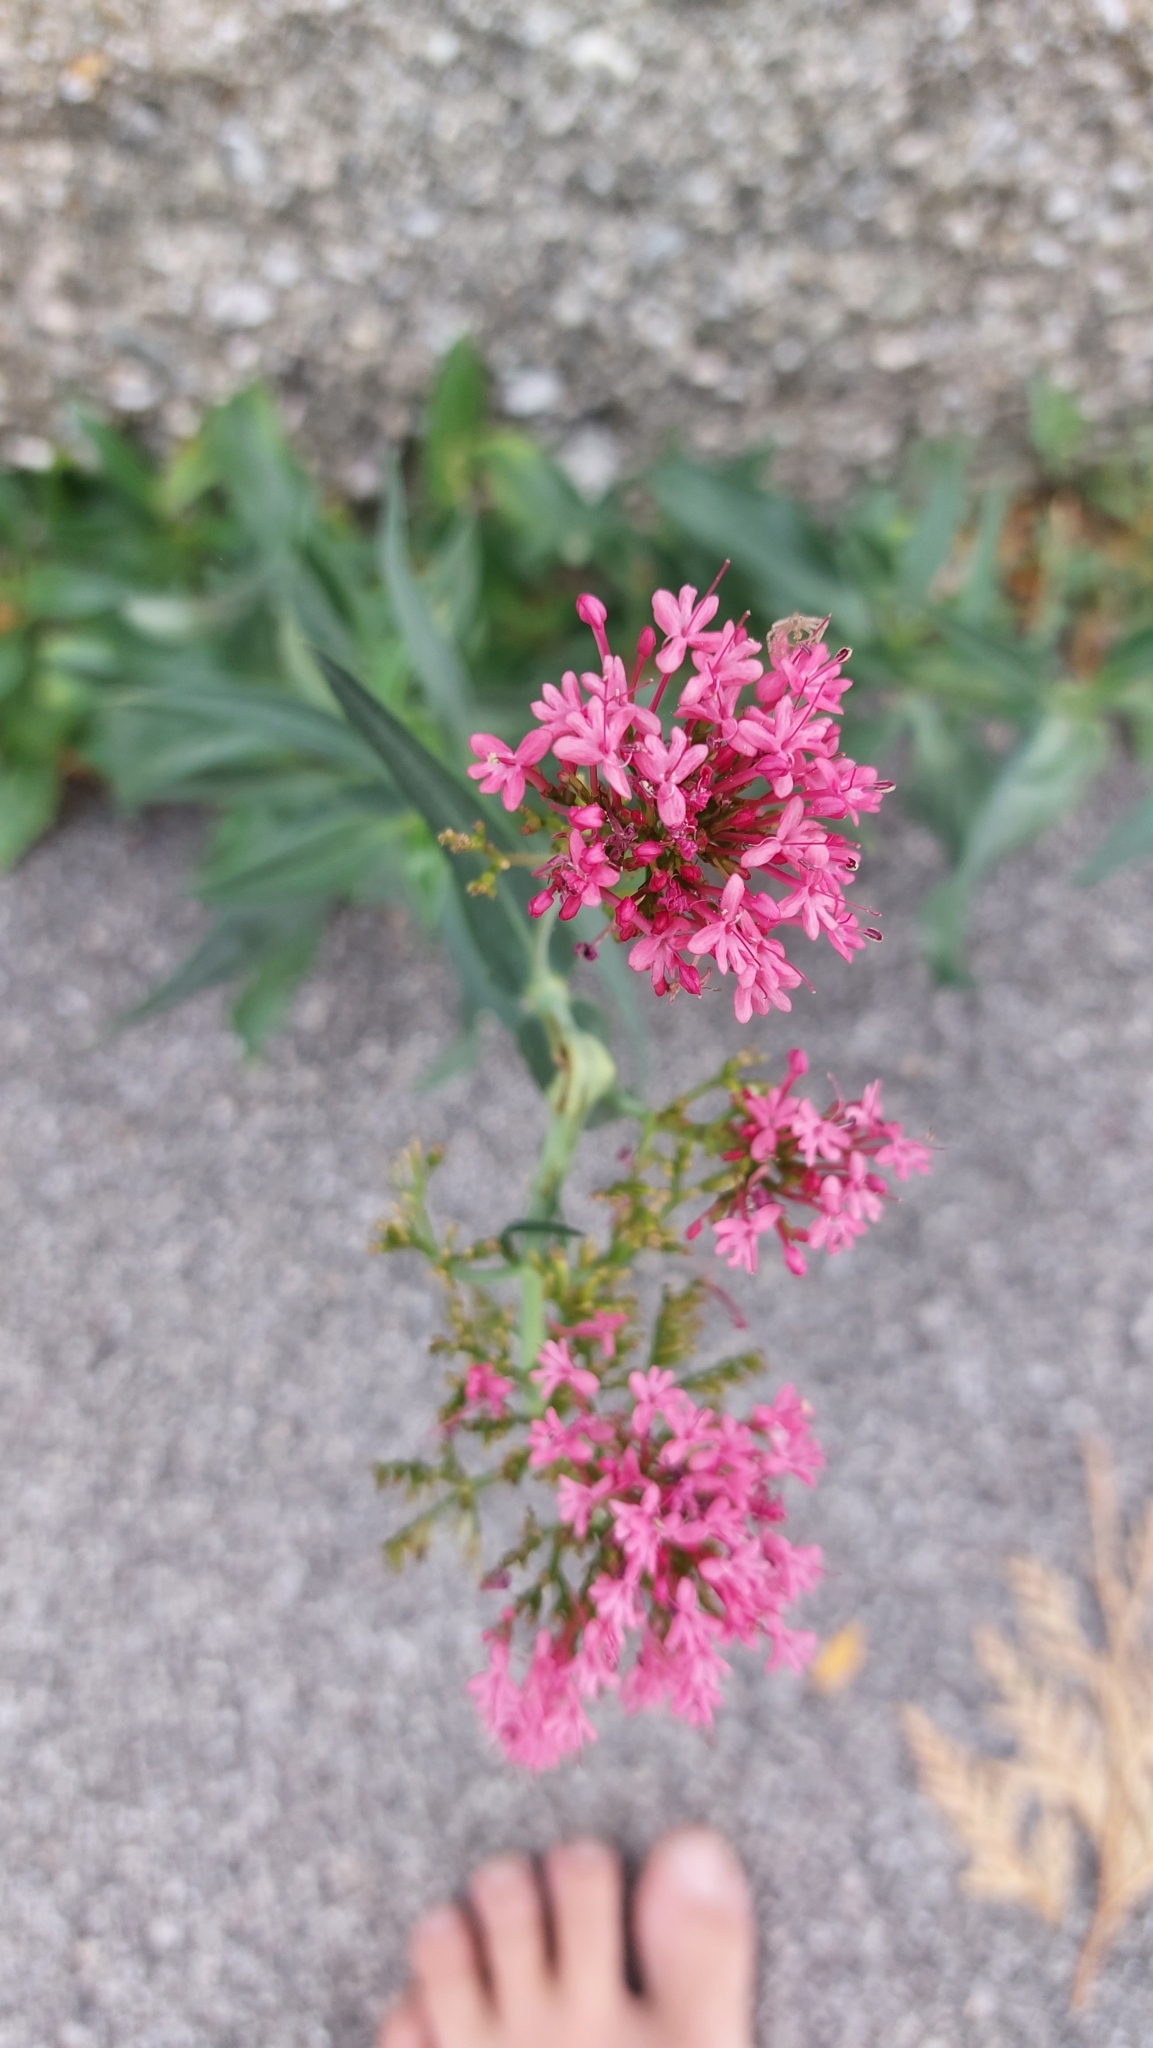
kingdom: Plantae
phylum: Tracheophyta
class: Magnoliopsida
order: Dipsacales
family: Caprifoliaceae
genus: Centranthus
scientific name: Centranthus ruber
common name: Red valerian
